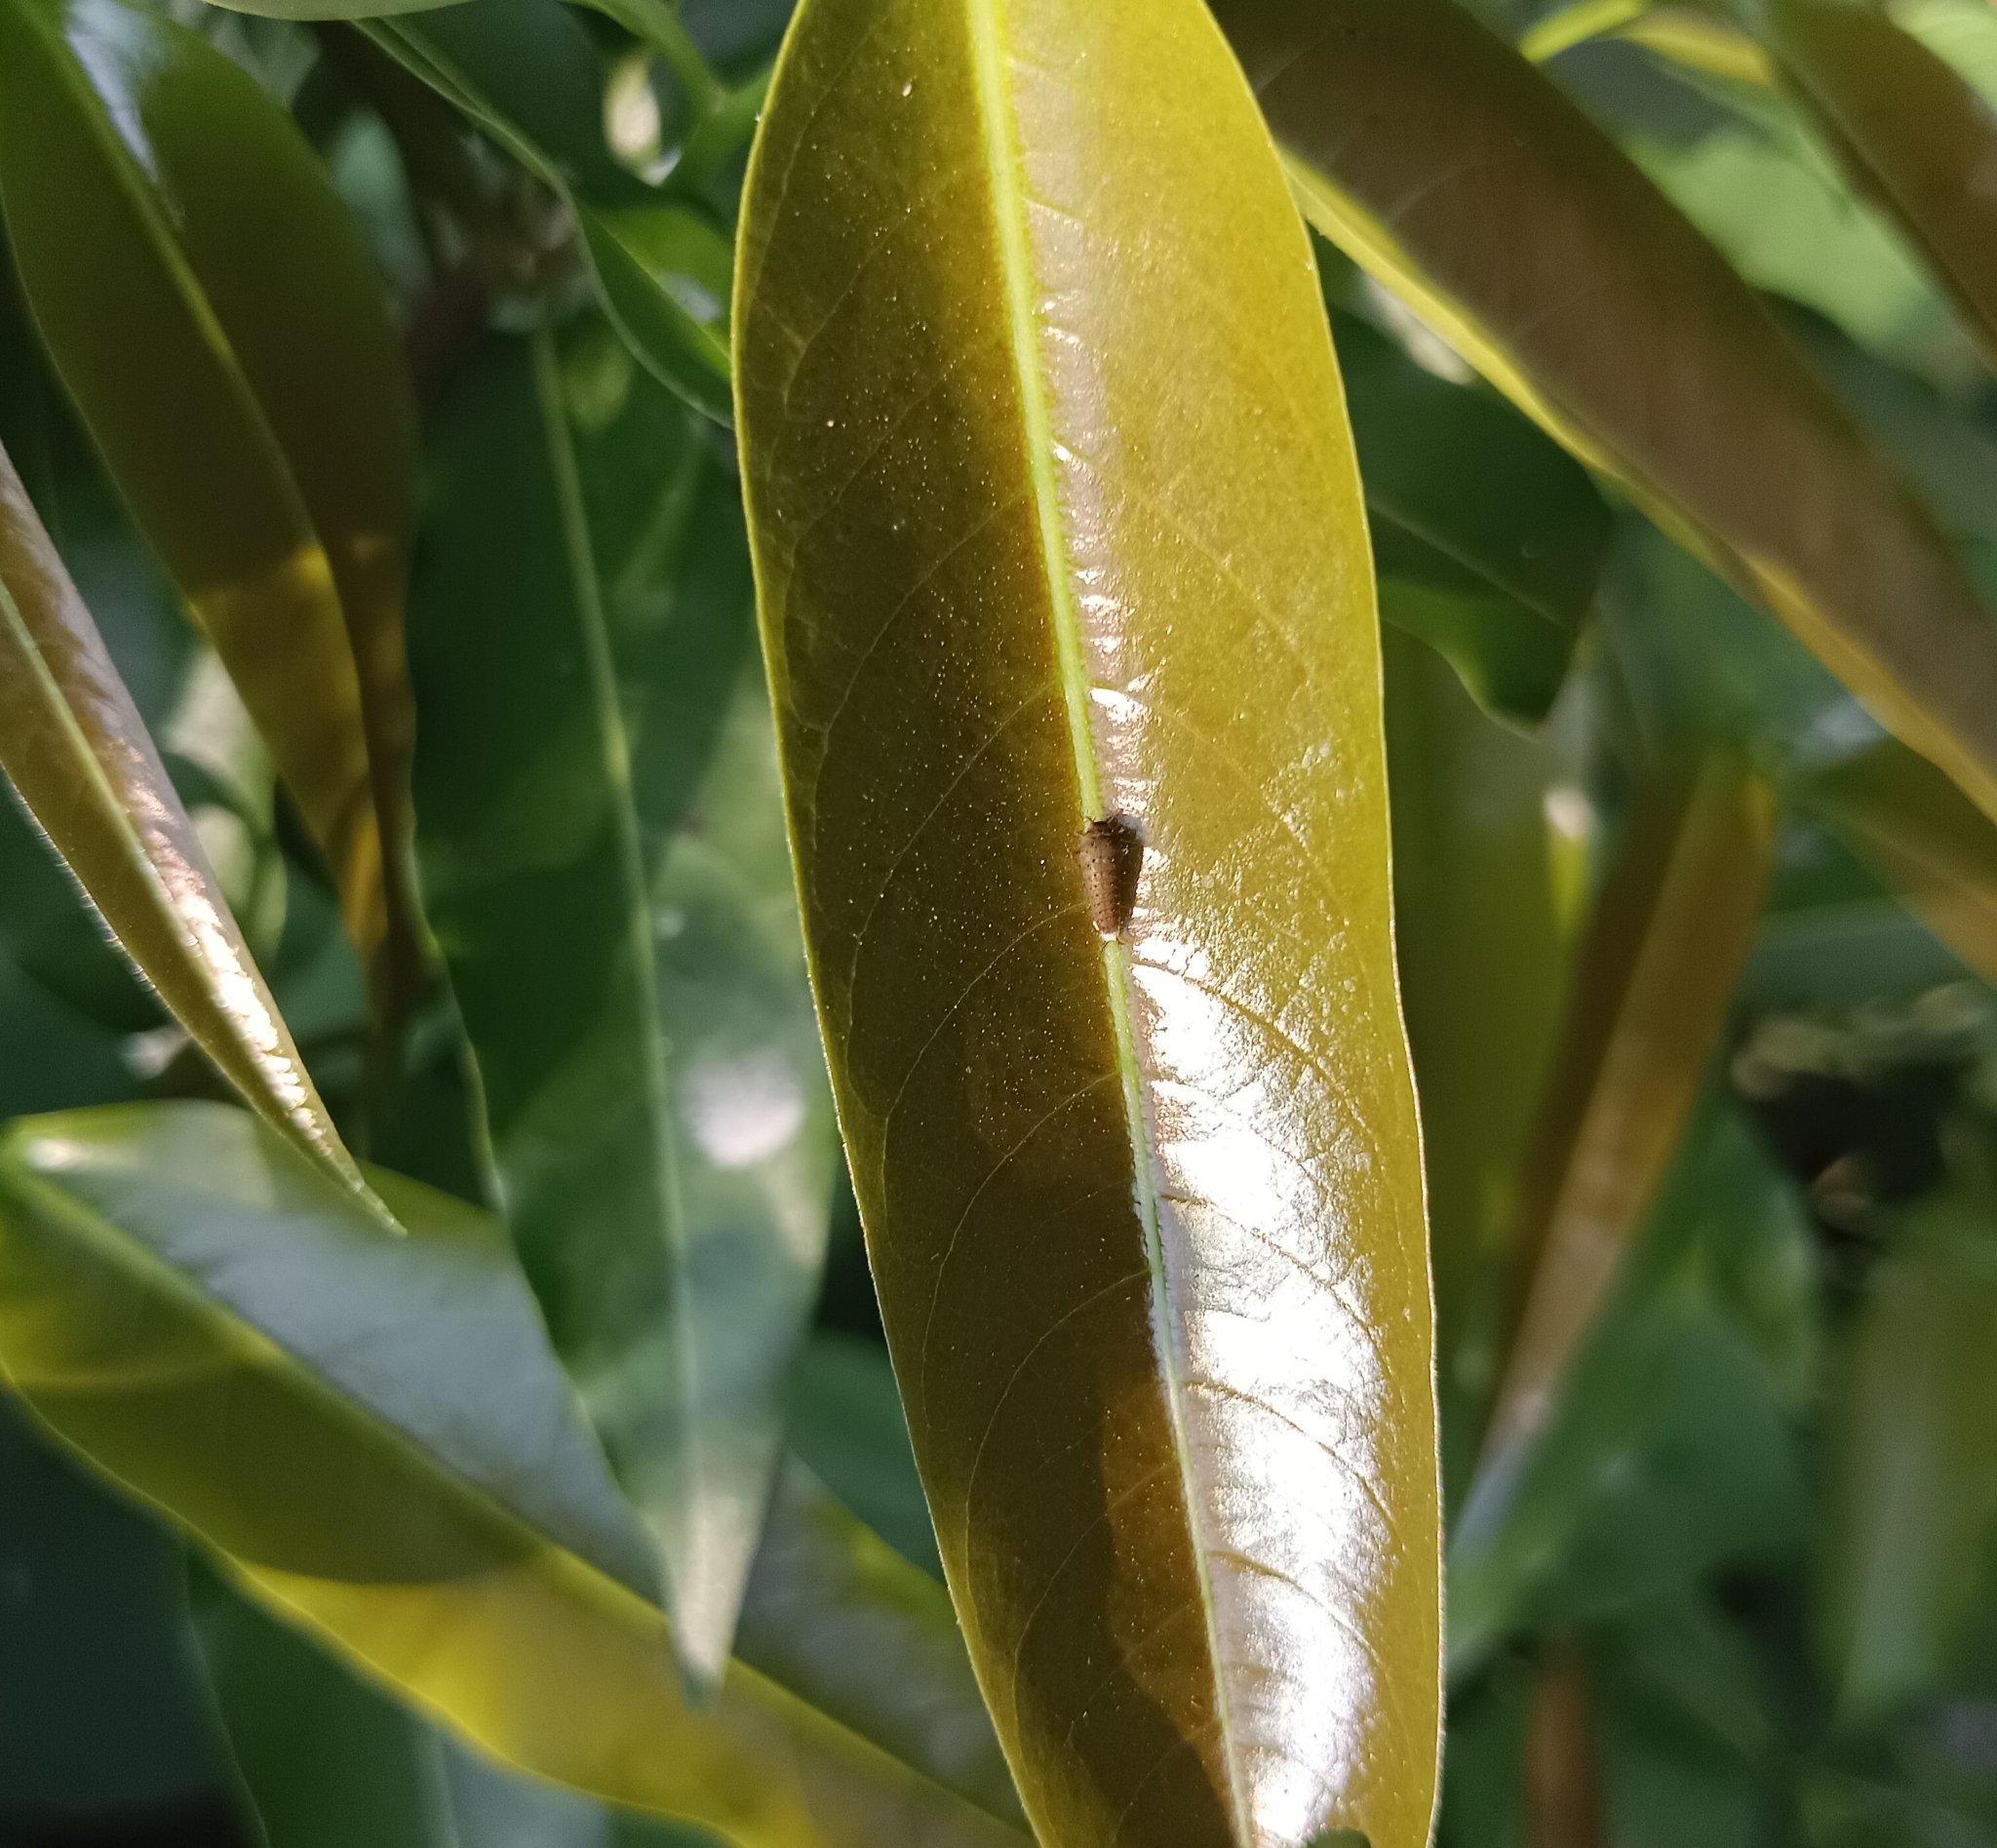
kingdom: Animalia
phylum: Arthropoda
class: Insecta
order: Lepidoptera
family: Papilionidae
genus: Graphium
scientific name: Graphium doson
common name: Common jay
